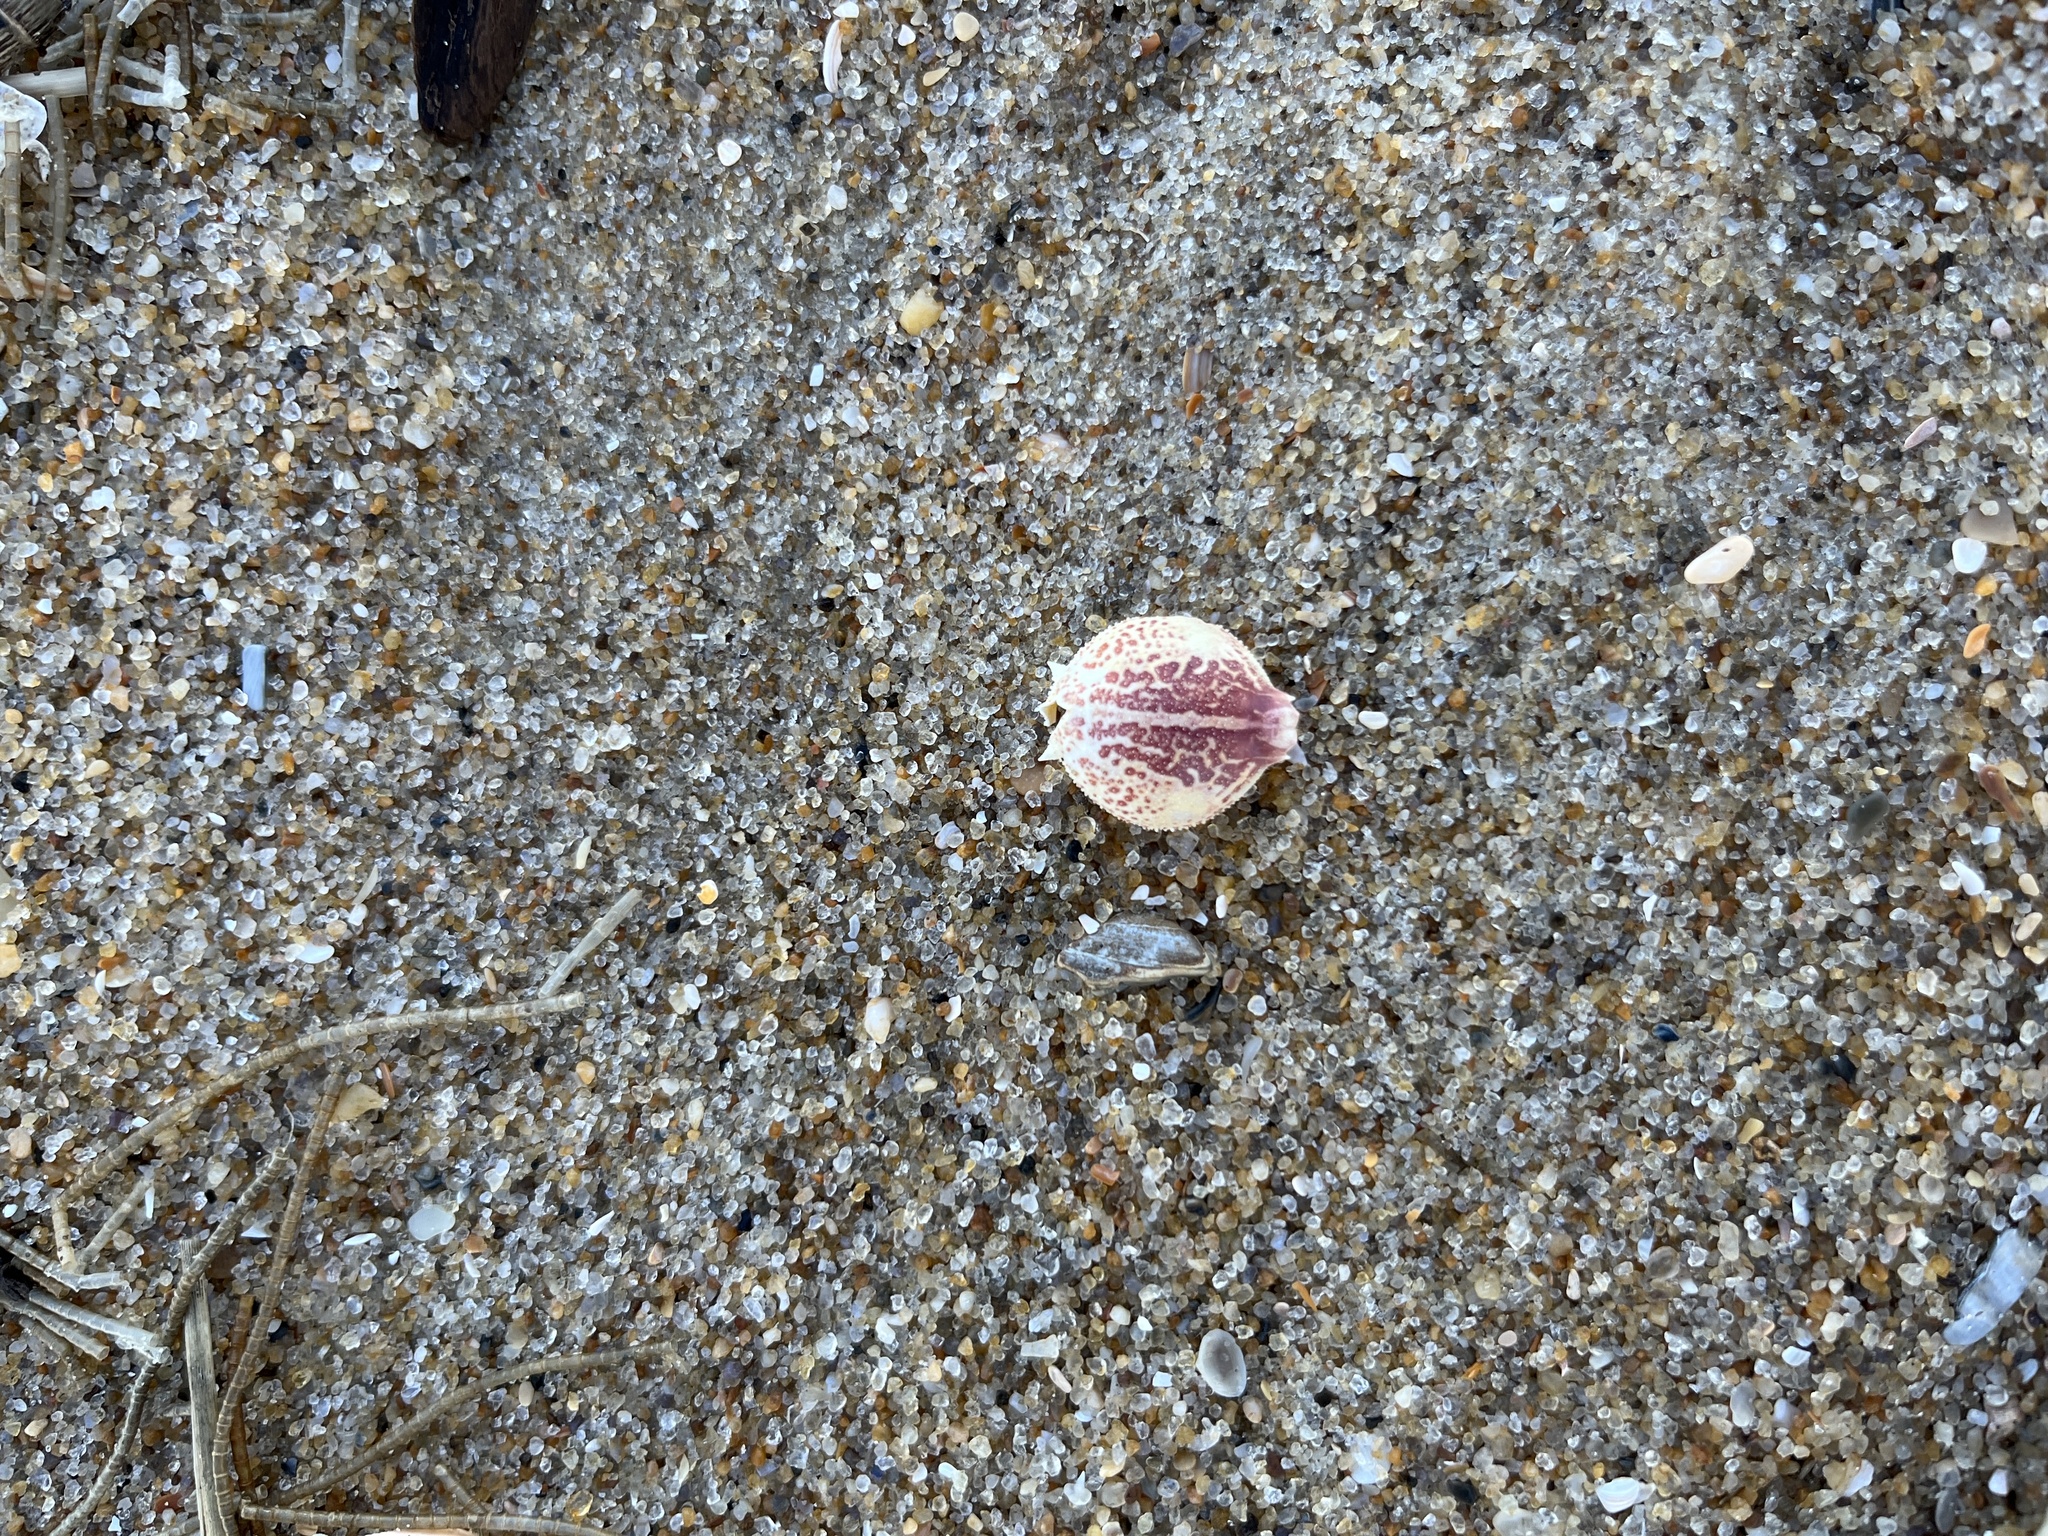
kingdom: Animalia
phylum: Arthropoda
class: Malacostraca
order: Decapoda
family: Leucosiidae
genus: Persephona
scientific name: Persephona aquilonaris
